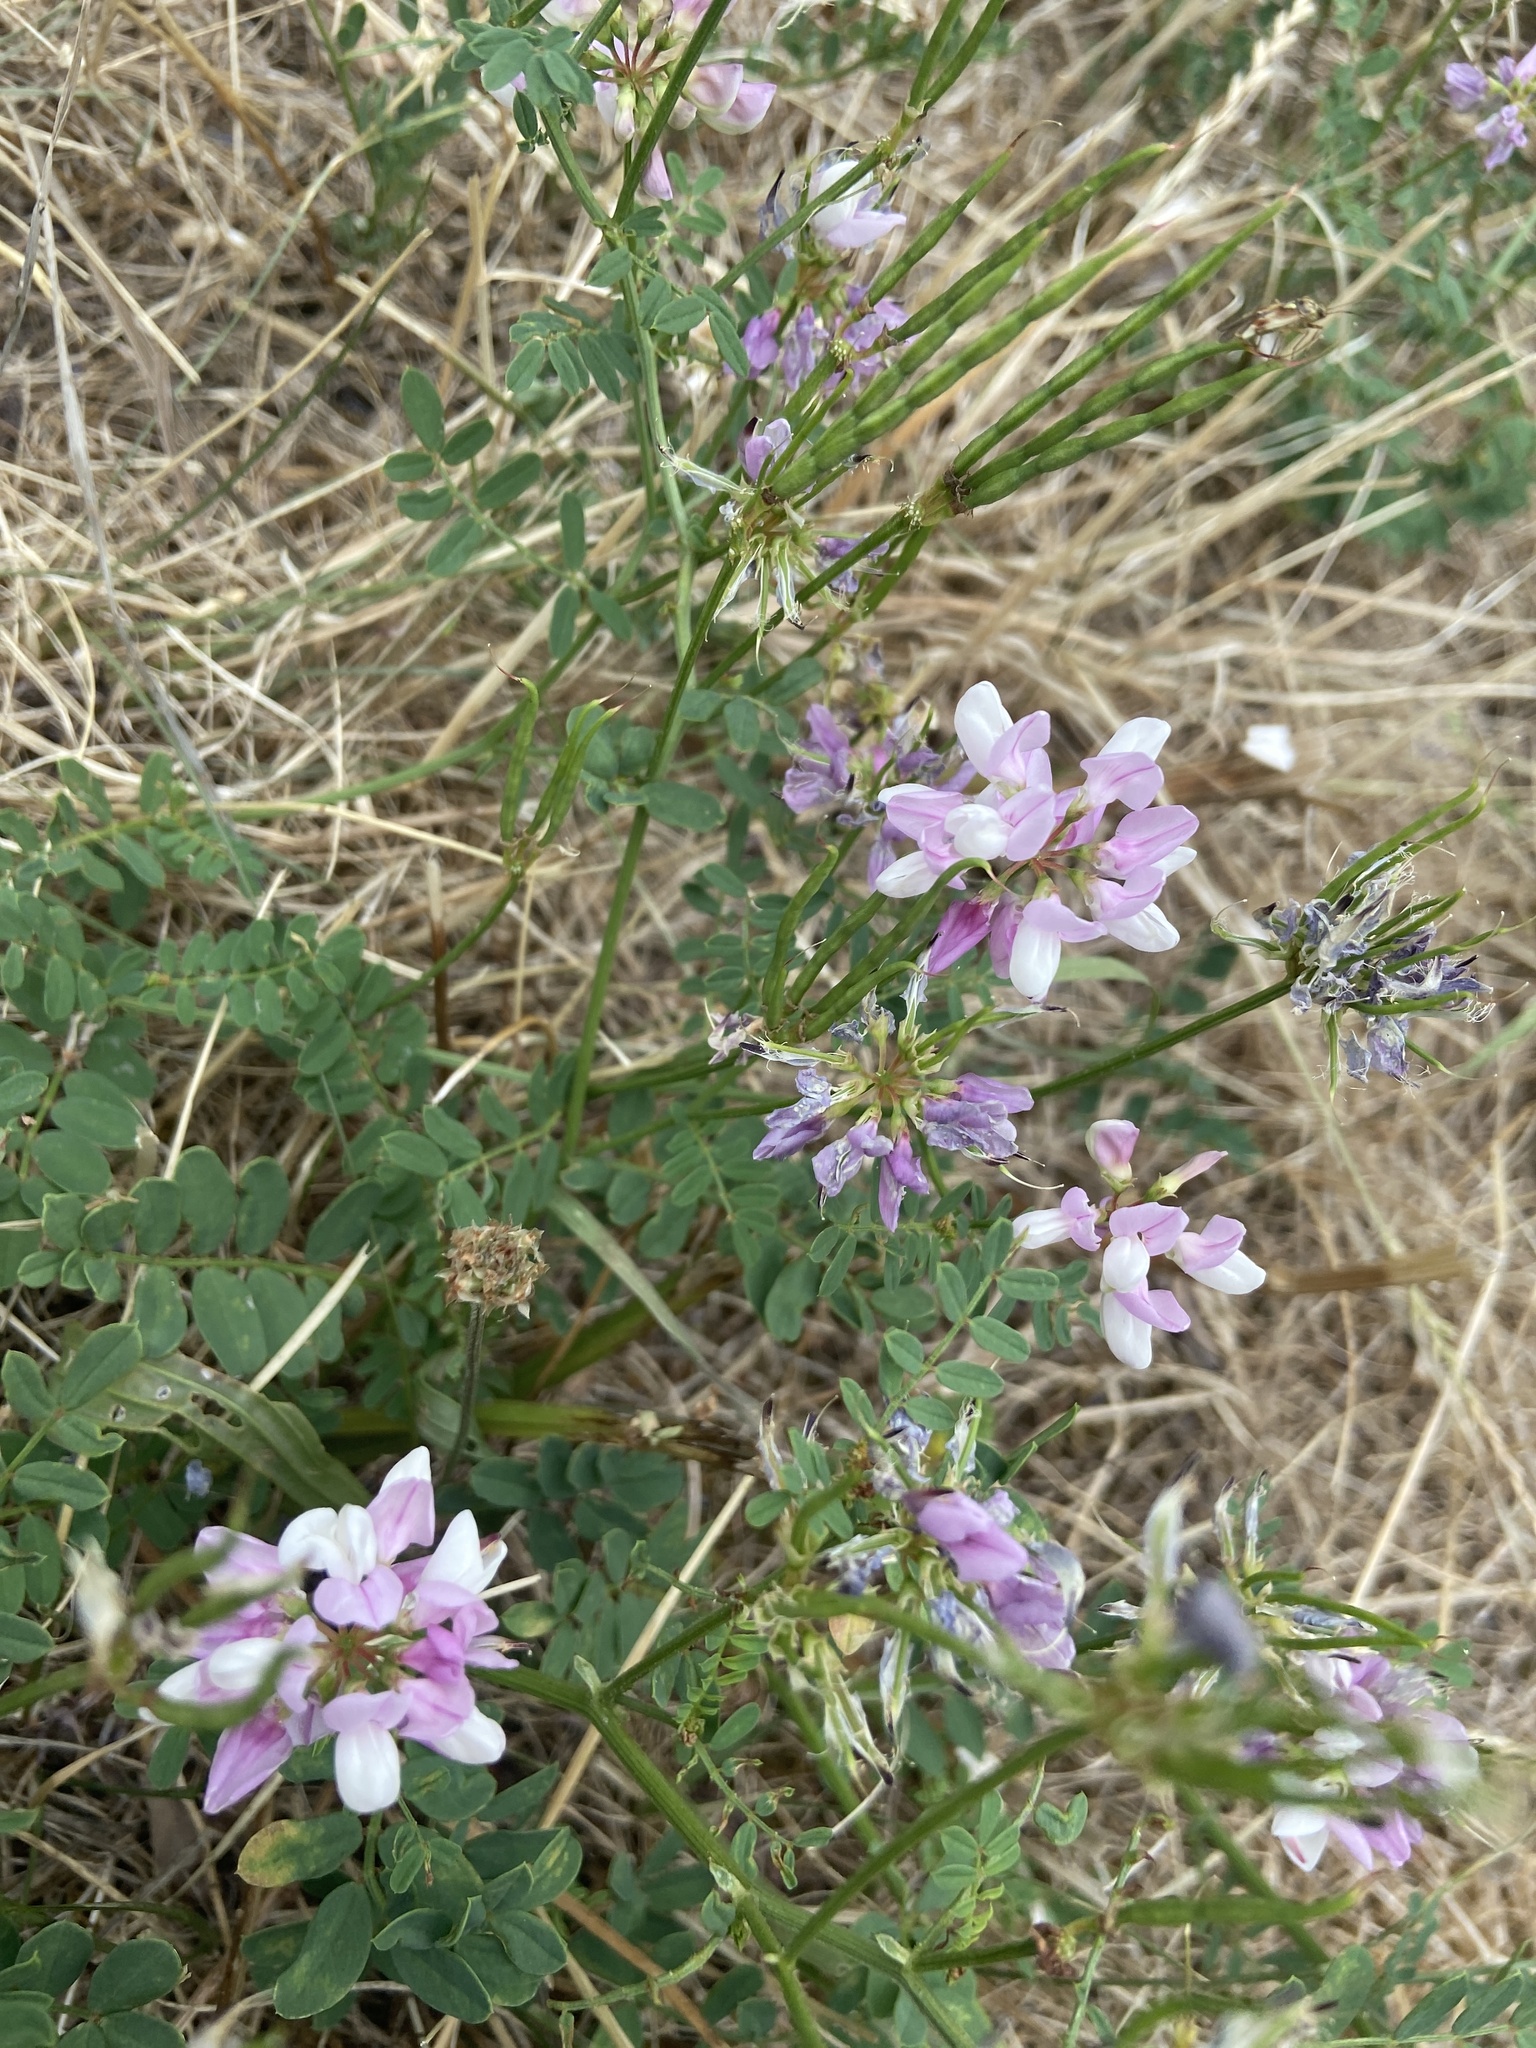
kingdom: Plantae
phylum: Tracheophyta
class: Magnoliopsida
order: Fabales
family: Fabaceae
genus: Coronilla
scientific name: Coronilla varia
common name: Crownvetch
